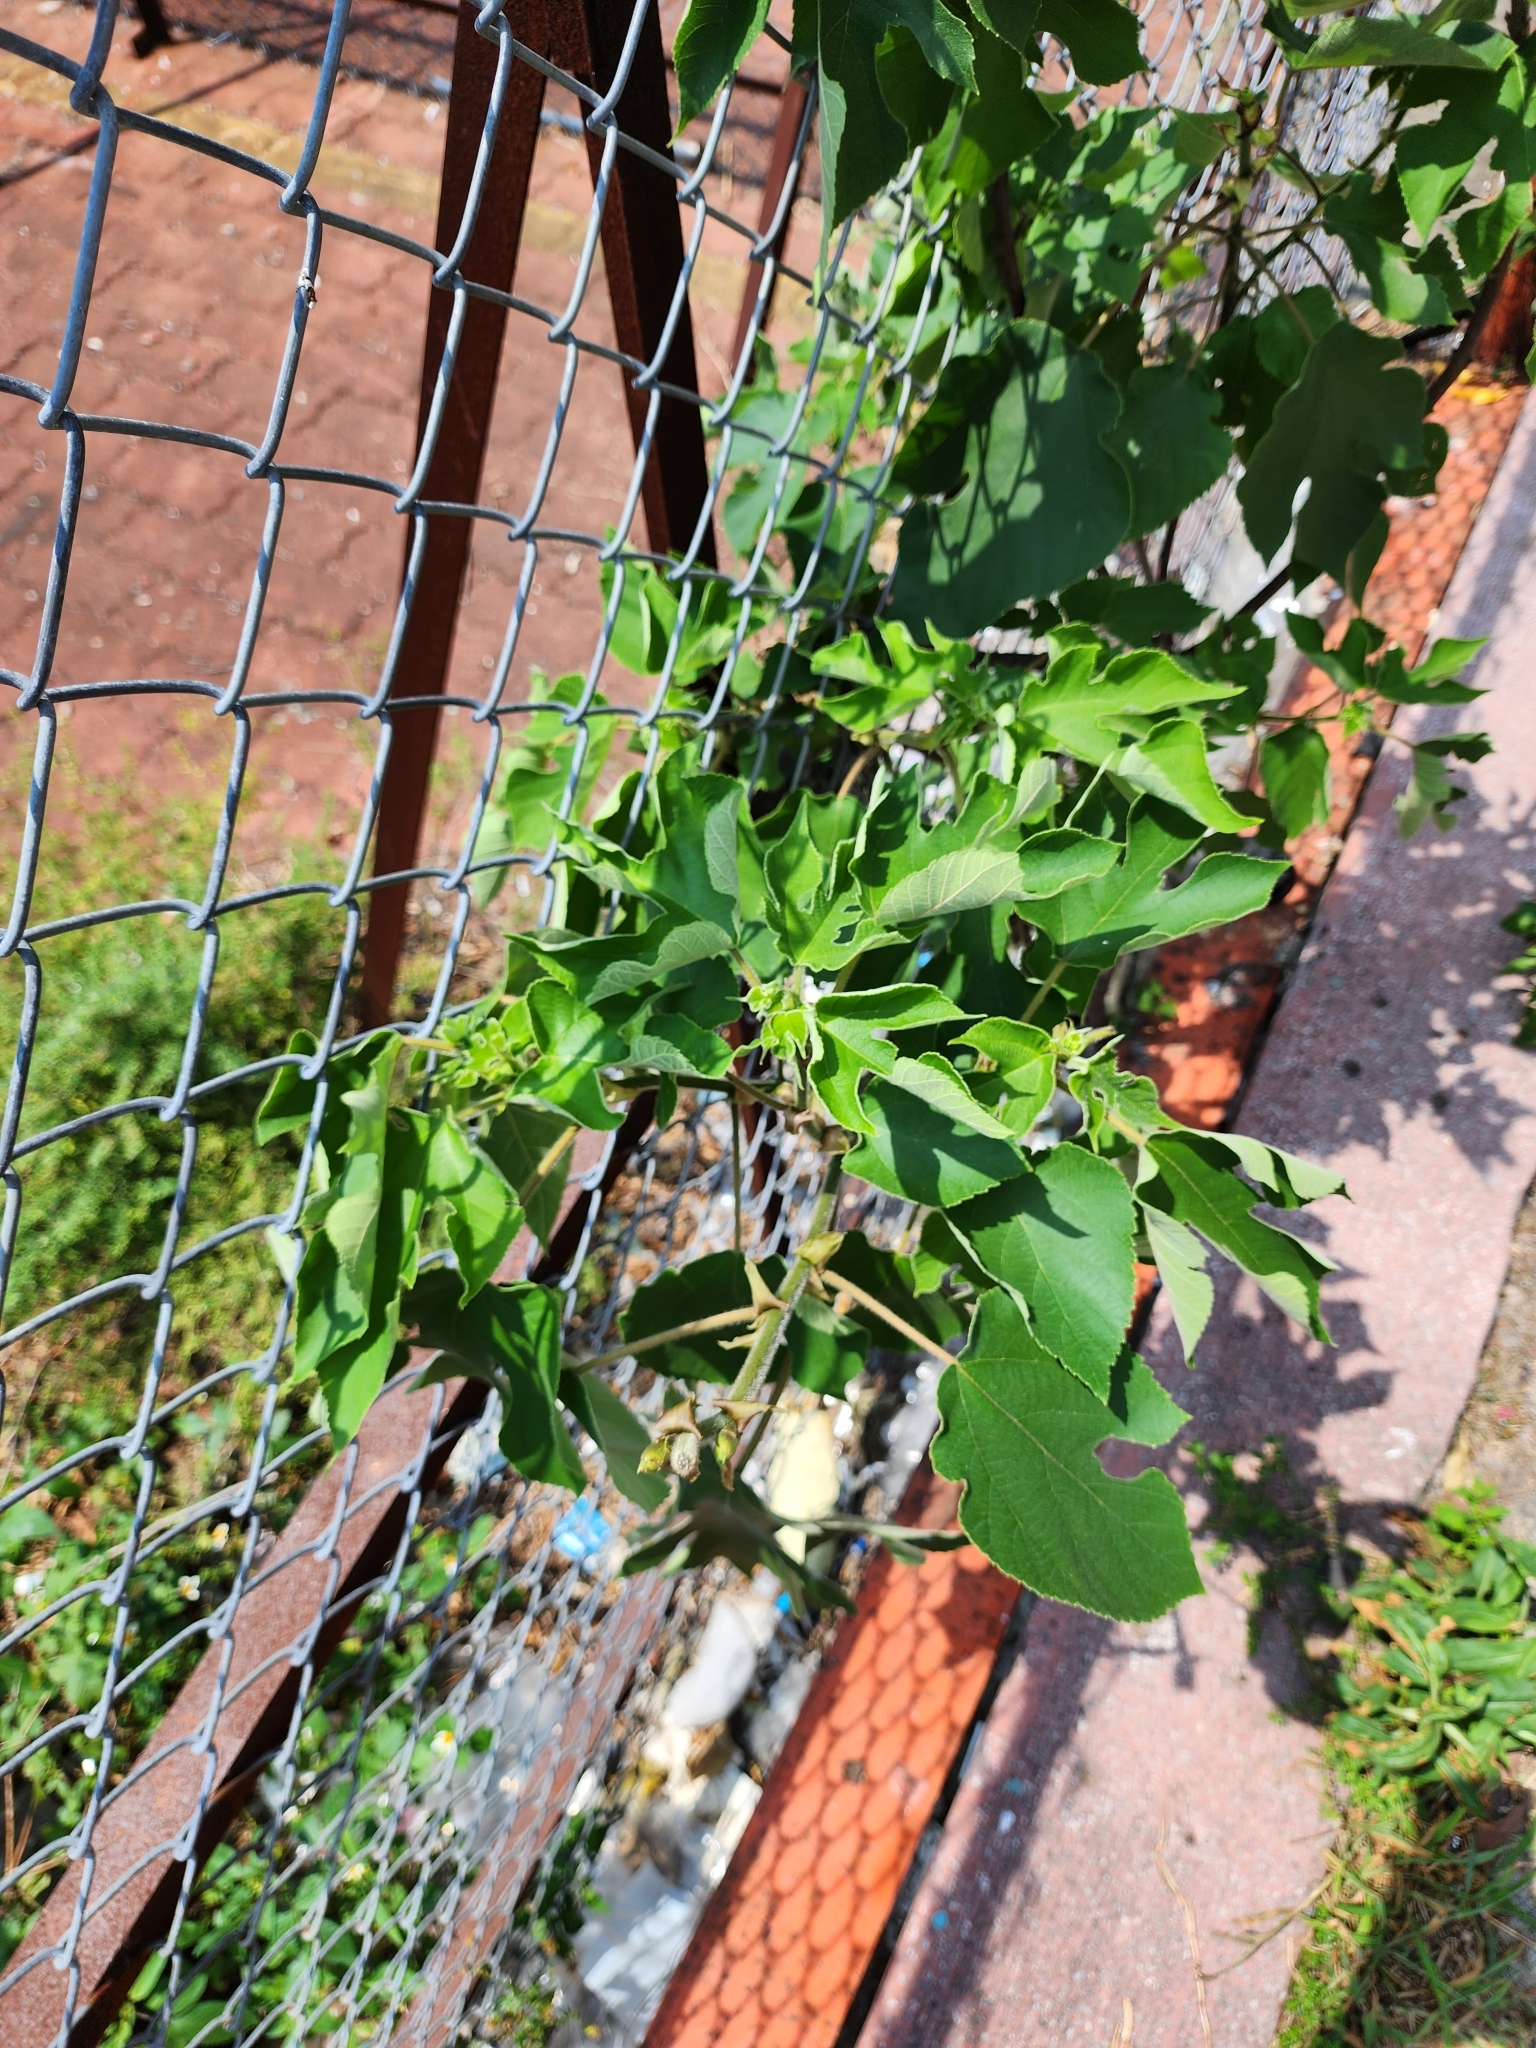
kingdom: Plantae
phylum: Tracheophyta
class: Magnoliopsida
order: Rosales
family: Moraceae
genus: Broussonetia
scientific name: Broussonetia papyrifera
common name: Paper mulberry
